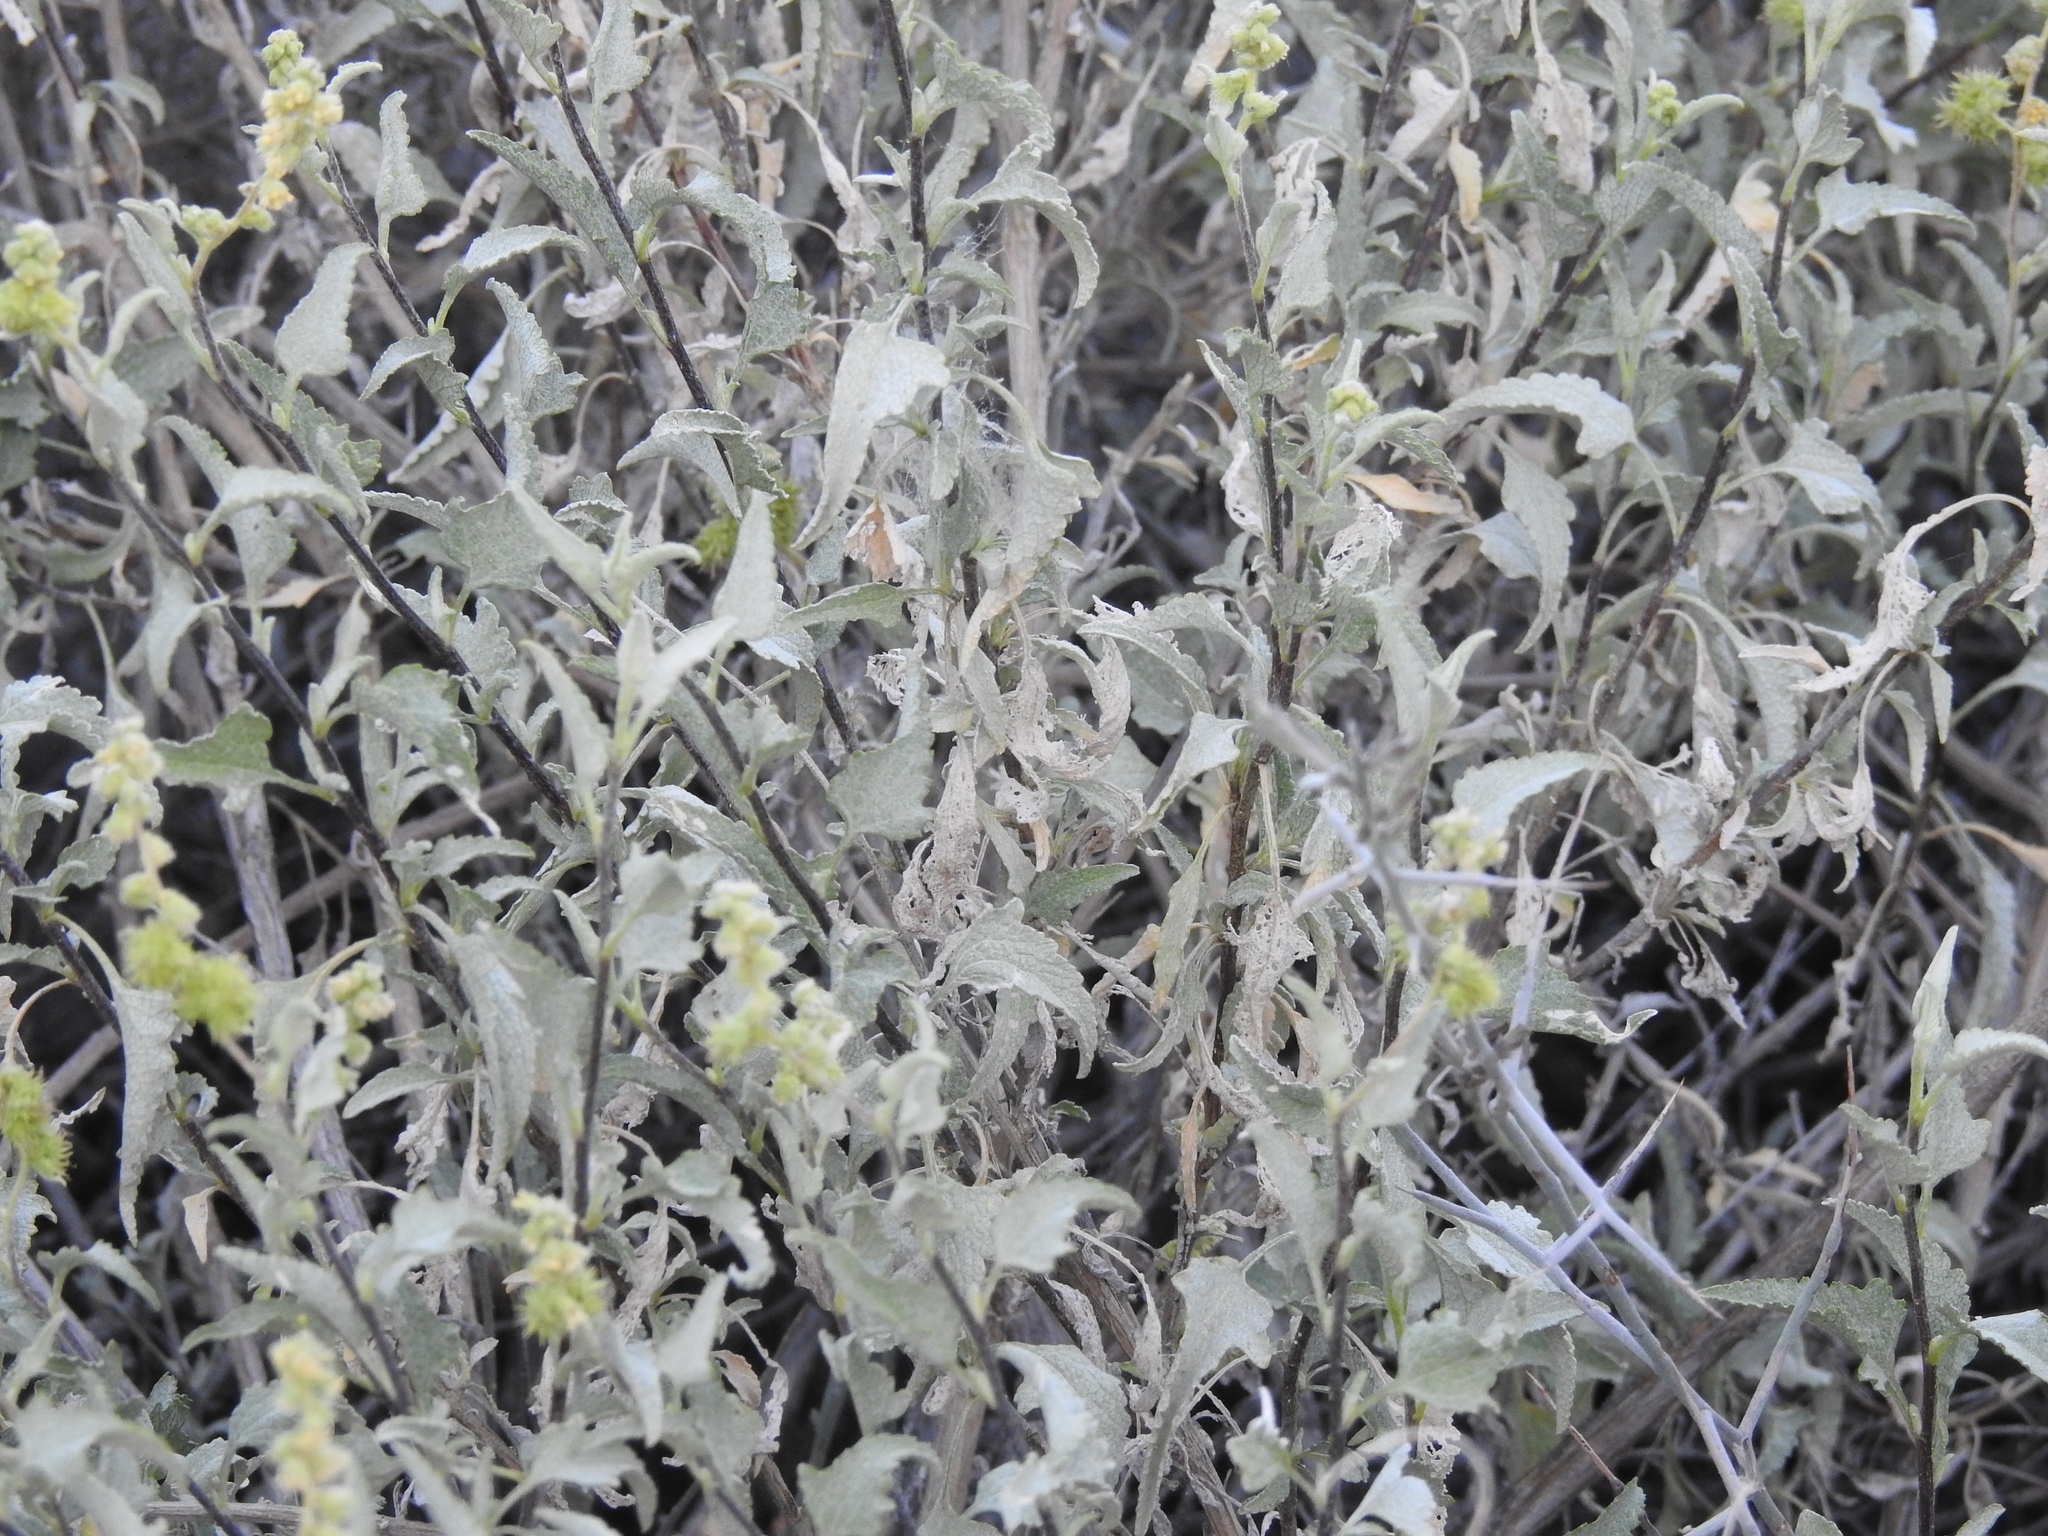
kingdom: Plantae
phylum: Tracheophyta
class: Magnoliopsida
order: Asterales
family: Asteraceae
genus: Ambrosia
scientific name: Ambrosia deltoidea
